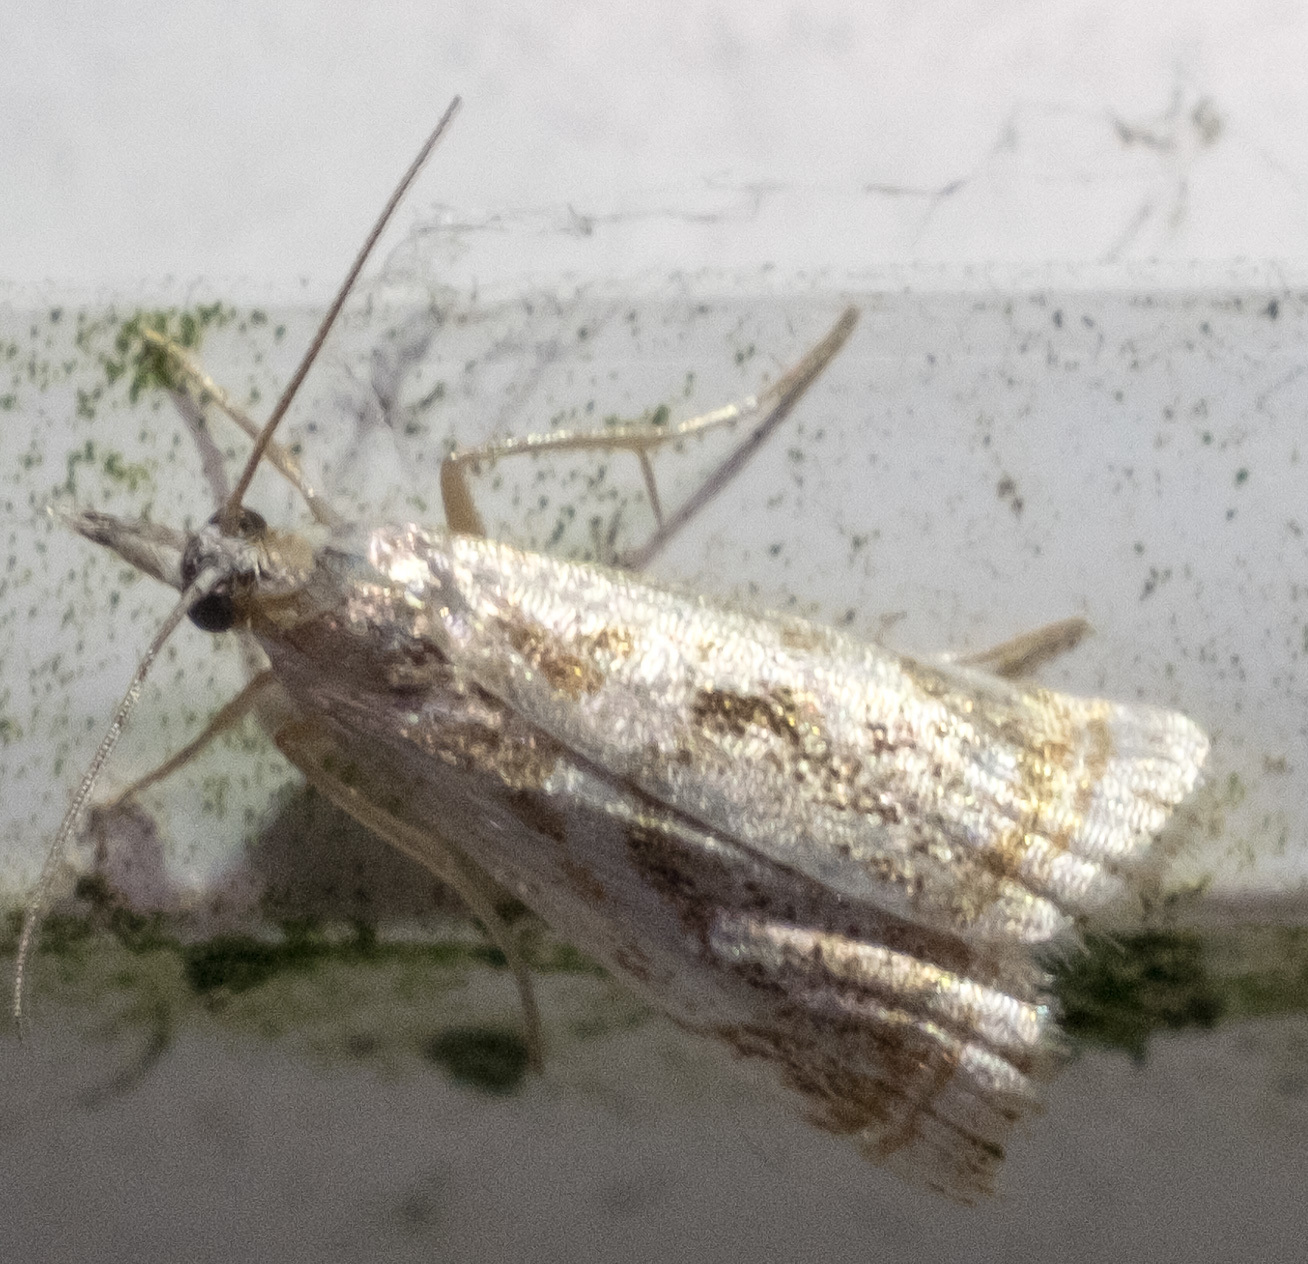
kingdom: Animalia
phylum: Arthropoda
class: Insecta
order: Lepidoptera
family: Crambidae
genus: Microcrambus
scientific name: Microcrambus elegans
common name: Elegant grass-veneer
